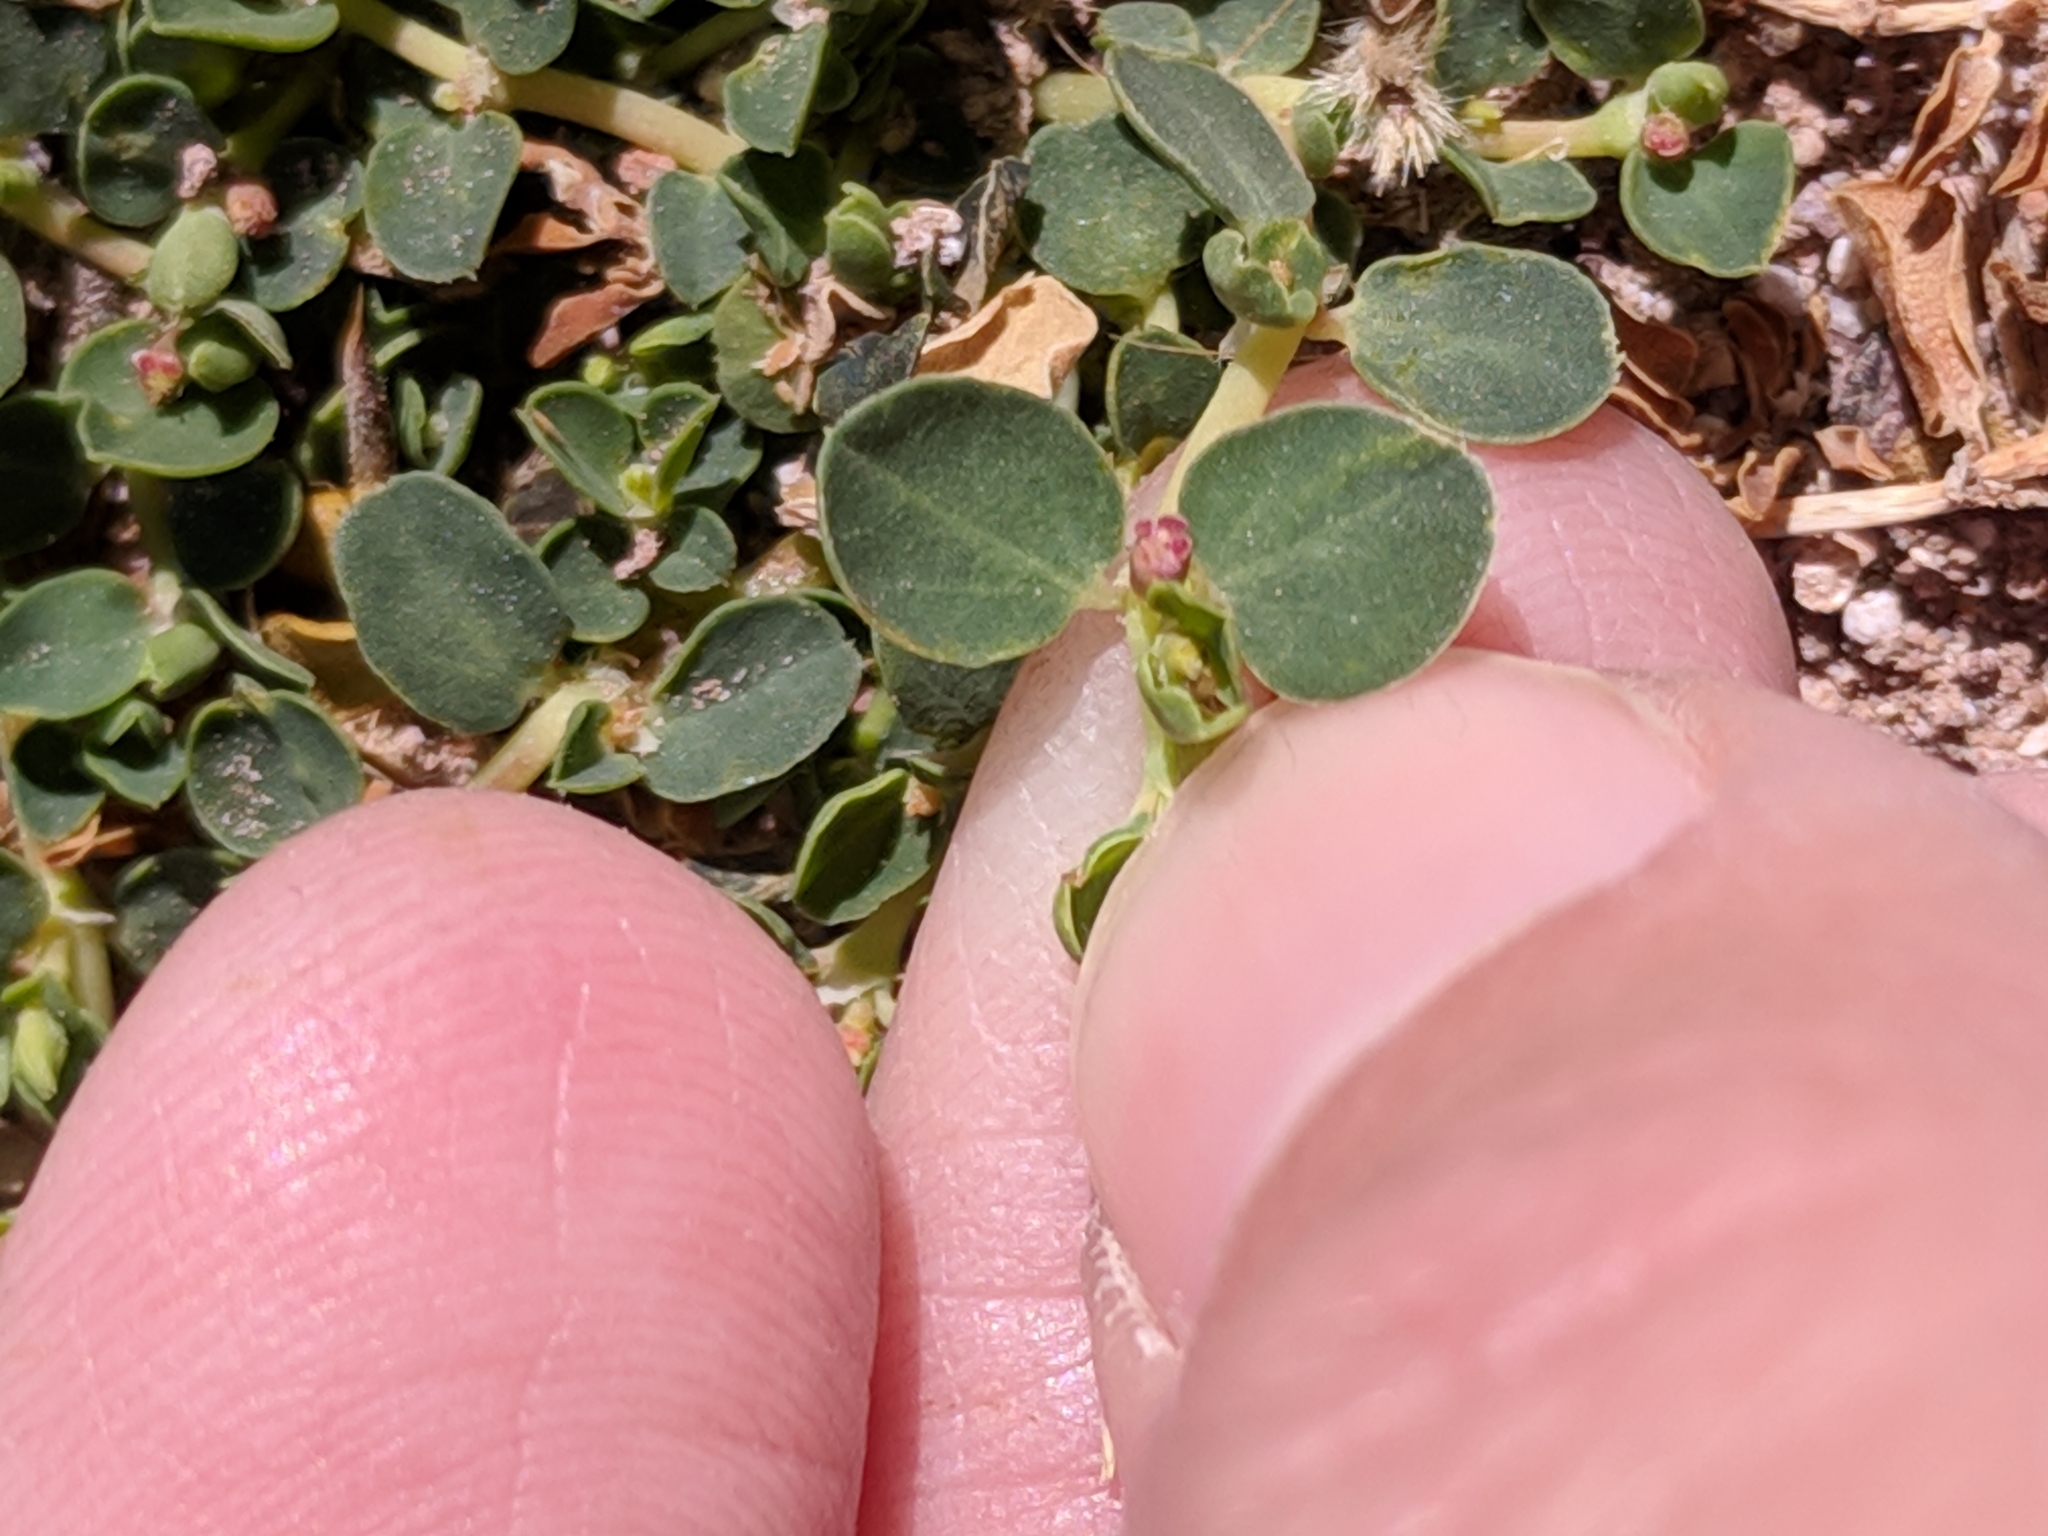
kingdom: Plantae
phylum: Tracheophyta
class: Magnoliopsida
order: Malpighiales
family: Euphorbiaceae
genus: Euphorbia
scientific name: Euphorbia albomarginata
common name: Whitemargin sandmat
